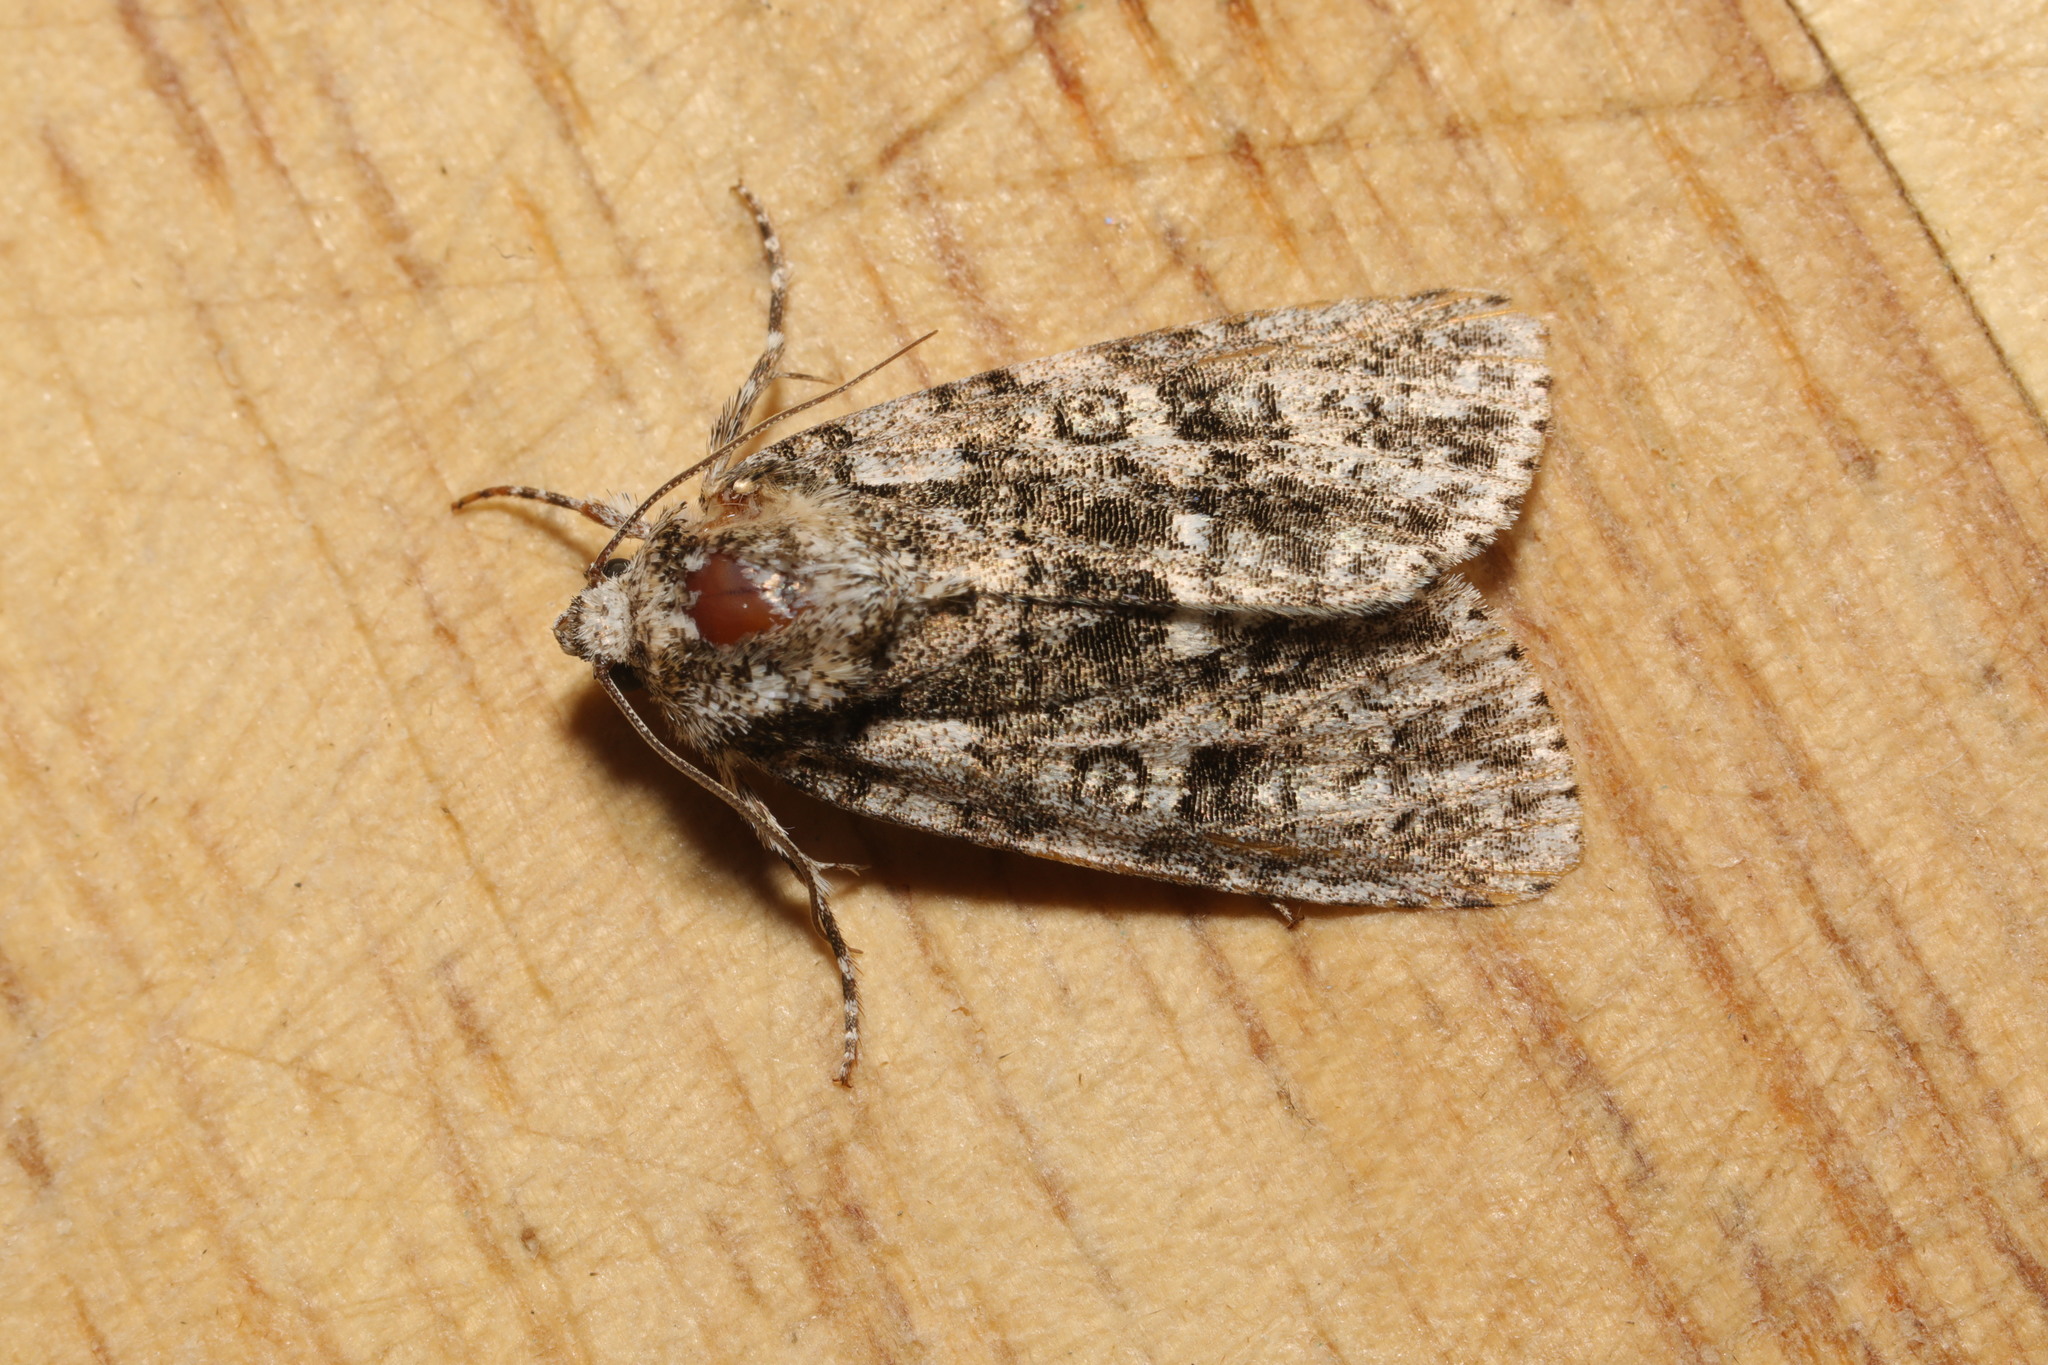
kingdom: Animalia
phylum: Arthropoda
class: Insecta
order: Lepidoptera
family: Noctuidae
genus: Acronicta
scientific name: Acronicta rumicis
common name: Knot grass
